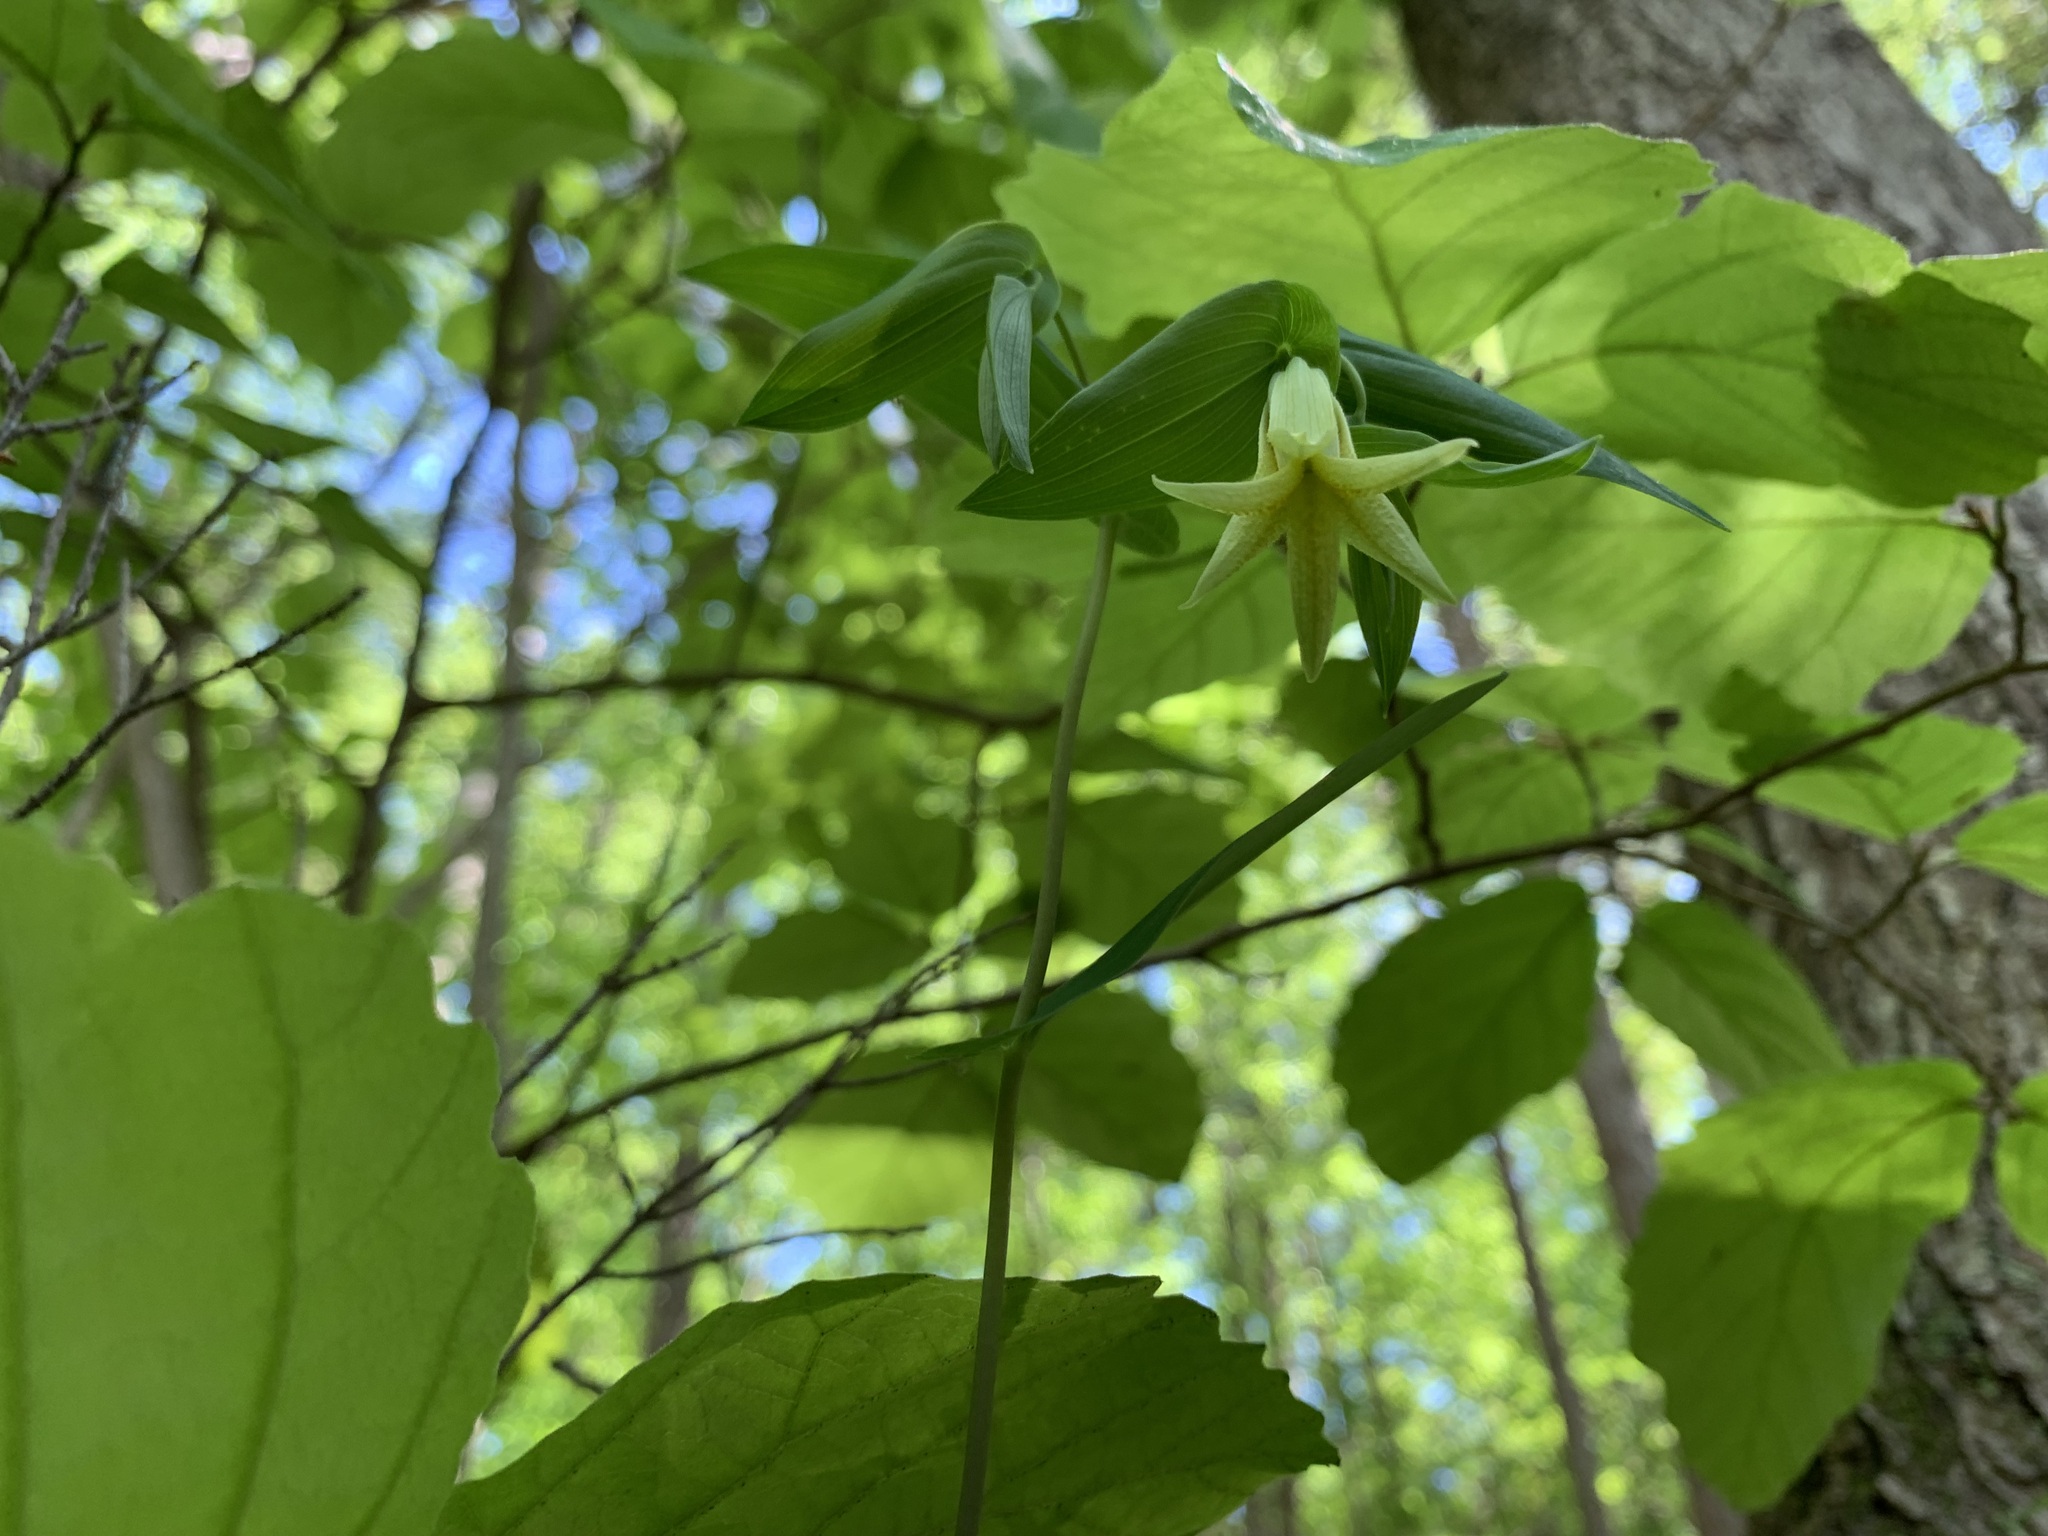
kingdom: Plantae
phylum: Tracheophyta
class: Liliopsida
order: Liliales
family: Colchicaceae
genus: Uvularia
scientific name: Uvularia perfoliata
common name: Perfoliate bellwort
